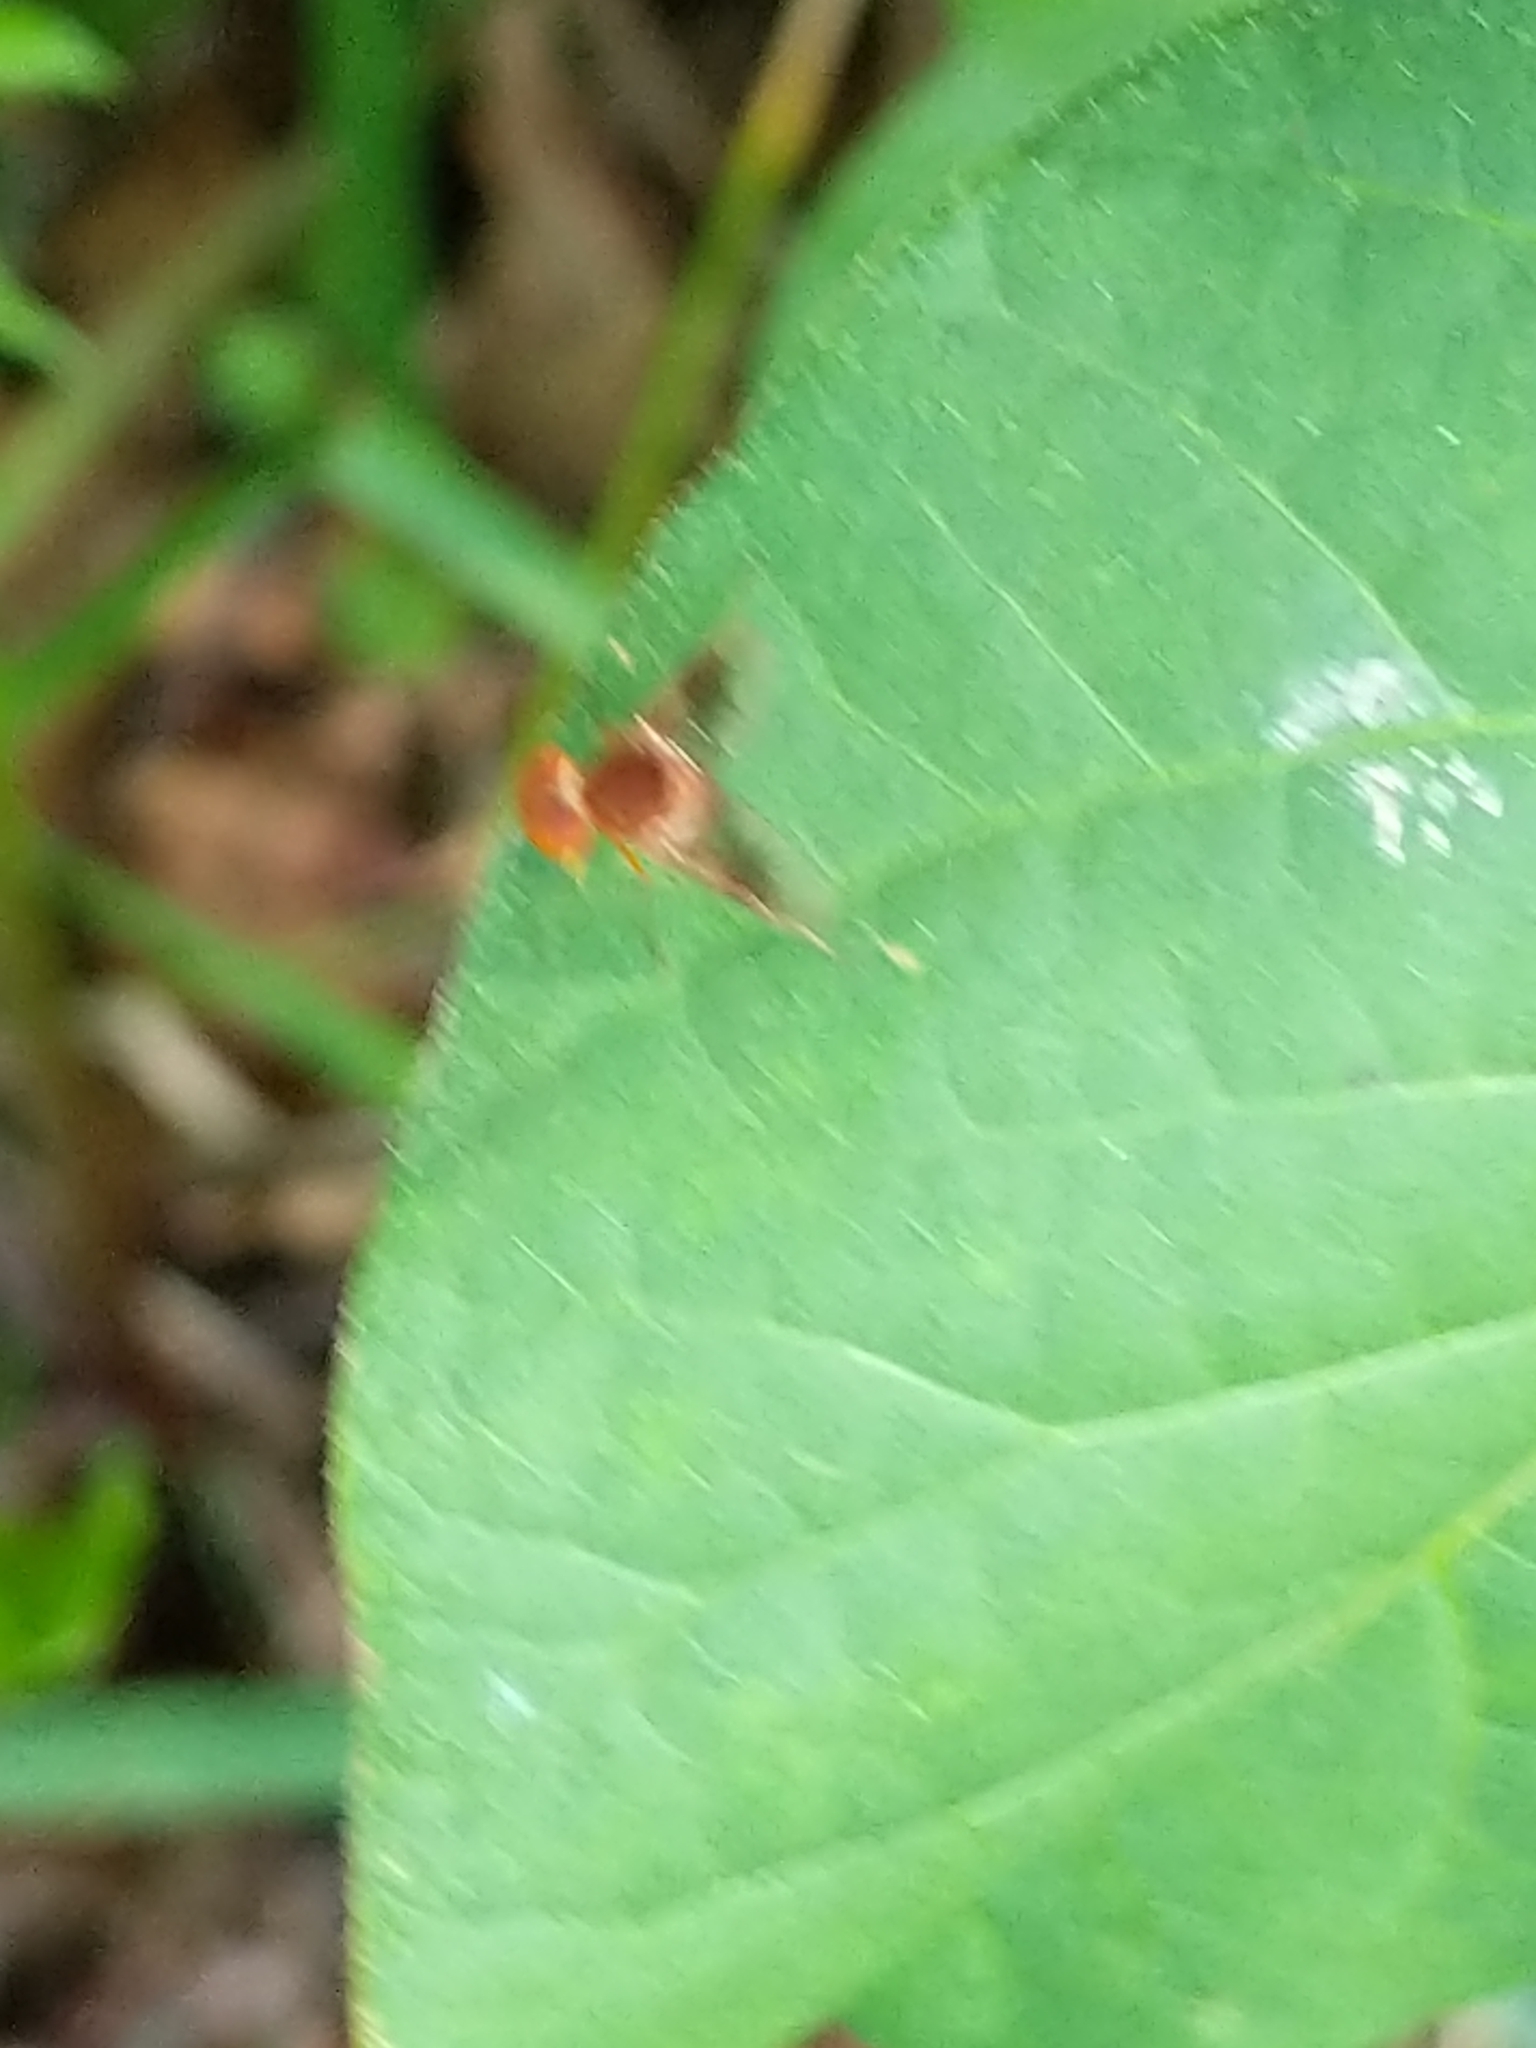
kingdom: Animalia
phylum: Arthropoda
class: Insecta
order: Diptera
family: Rhagionidae
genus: Chrysopilus
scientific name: Chrysopilus quadratus
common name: Quadrate snipe fly
